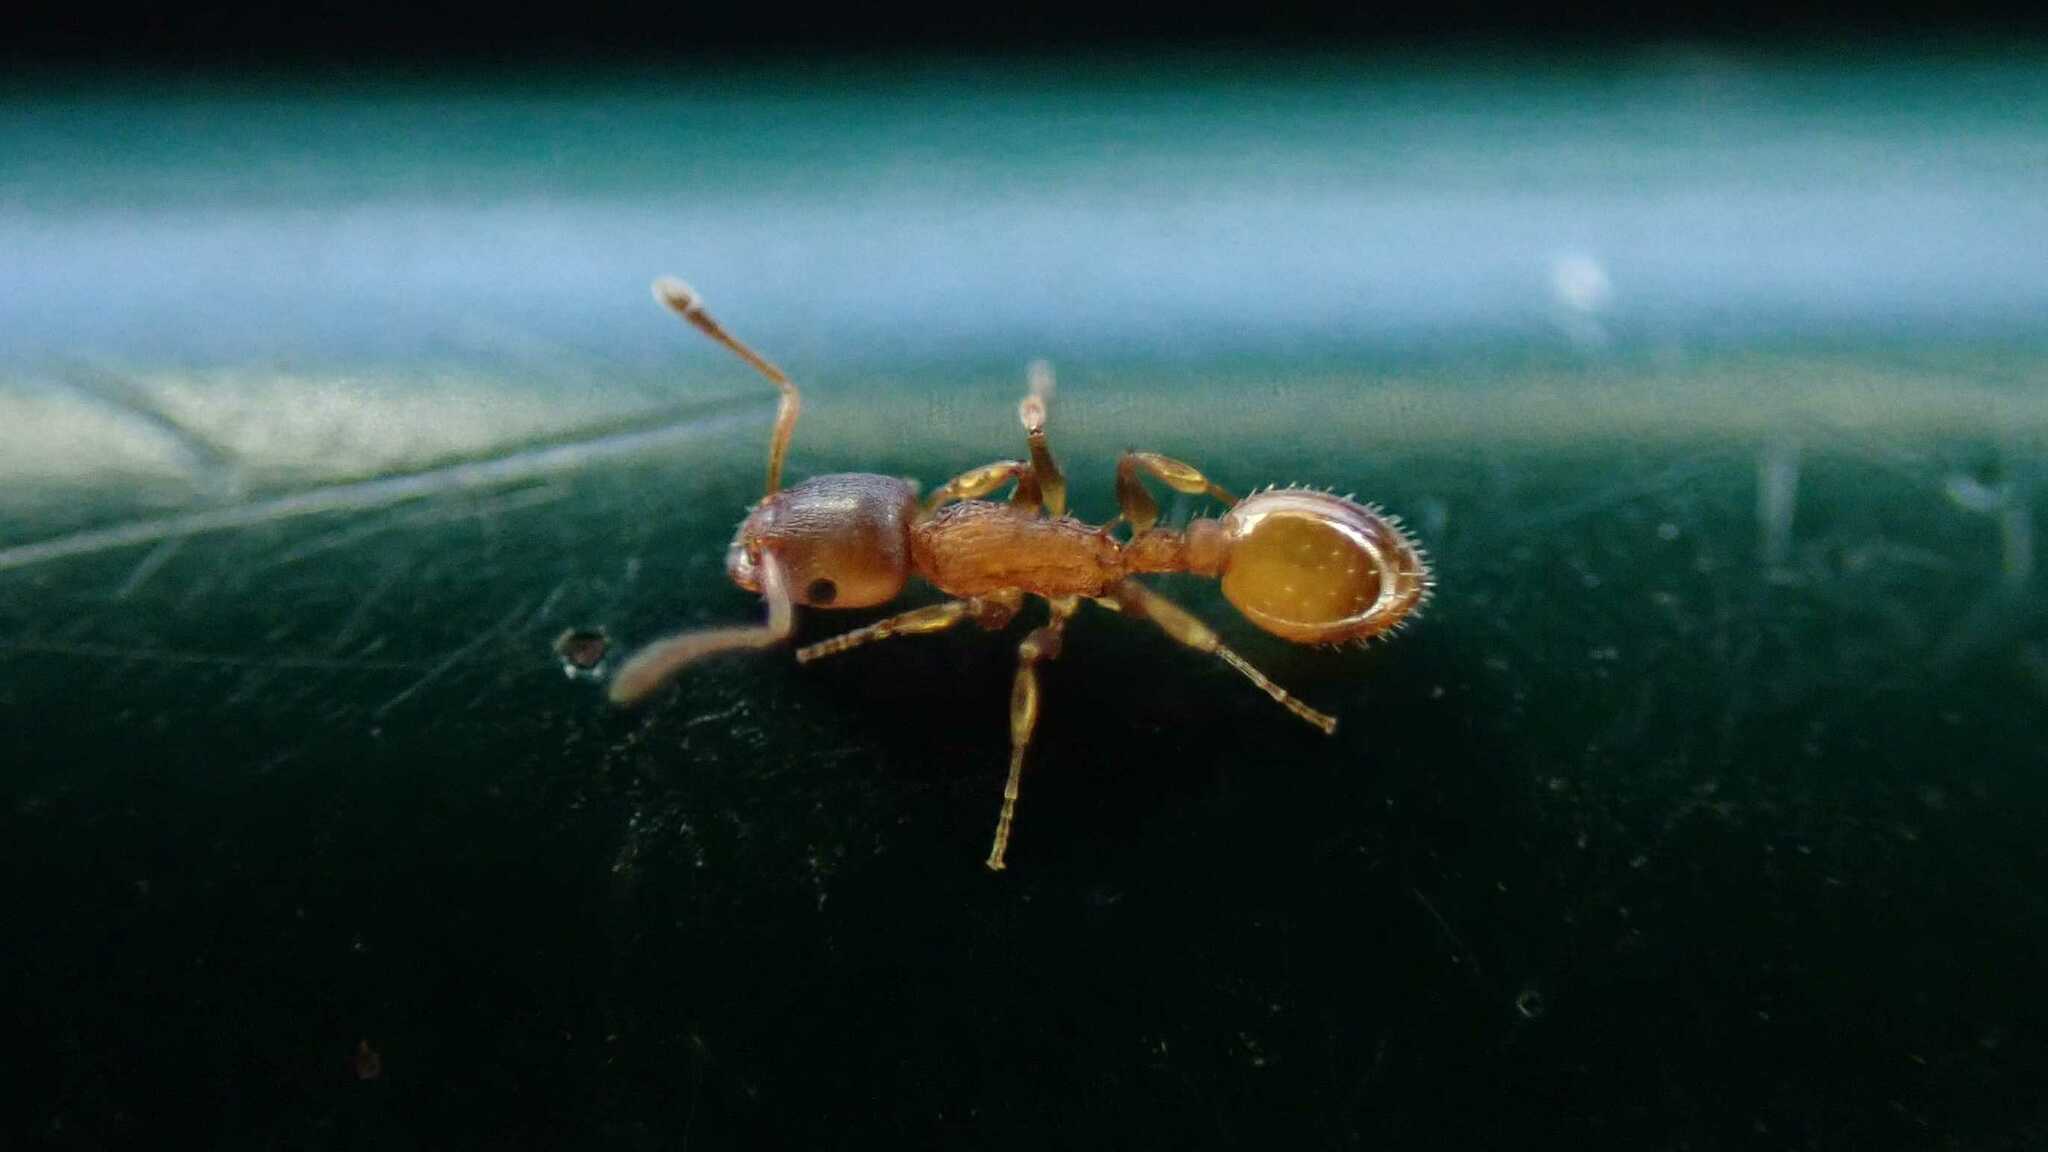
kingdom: Animalia
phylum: Arthropoda
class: Insecta
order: Hymenoptera
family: Formicidae
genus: Temnothorax
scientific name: Temnothorax
